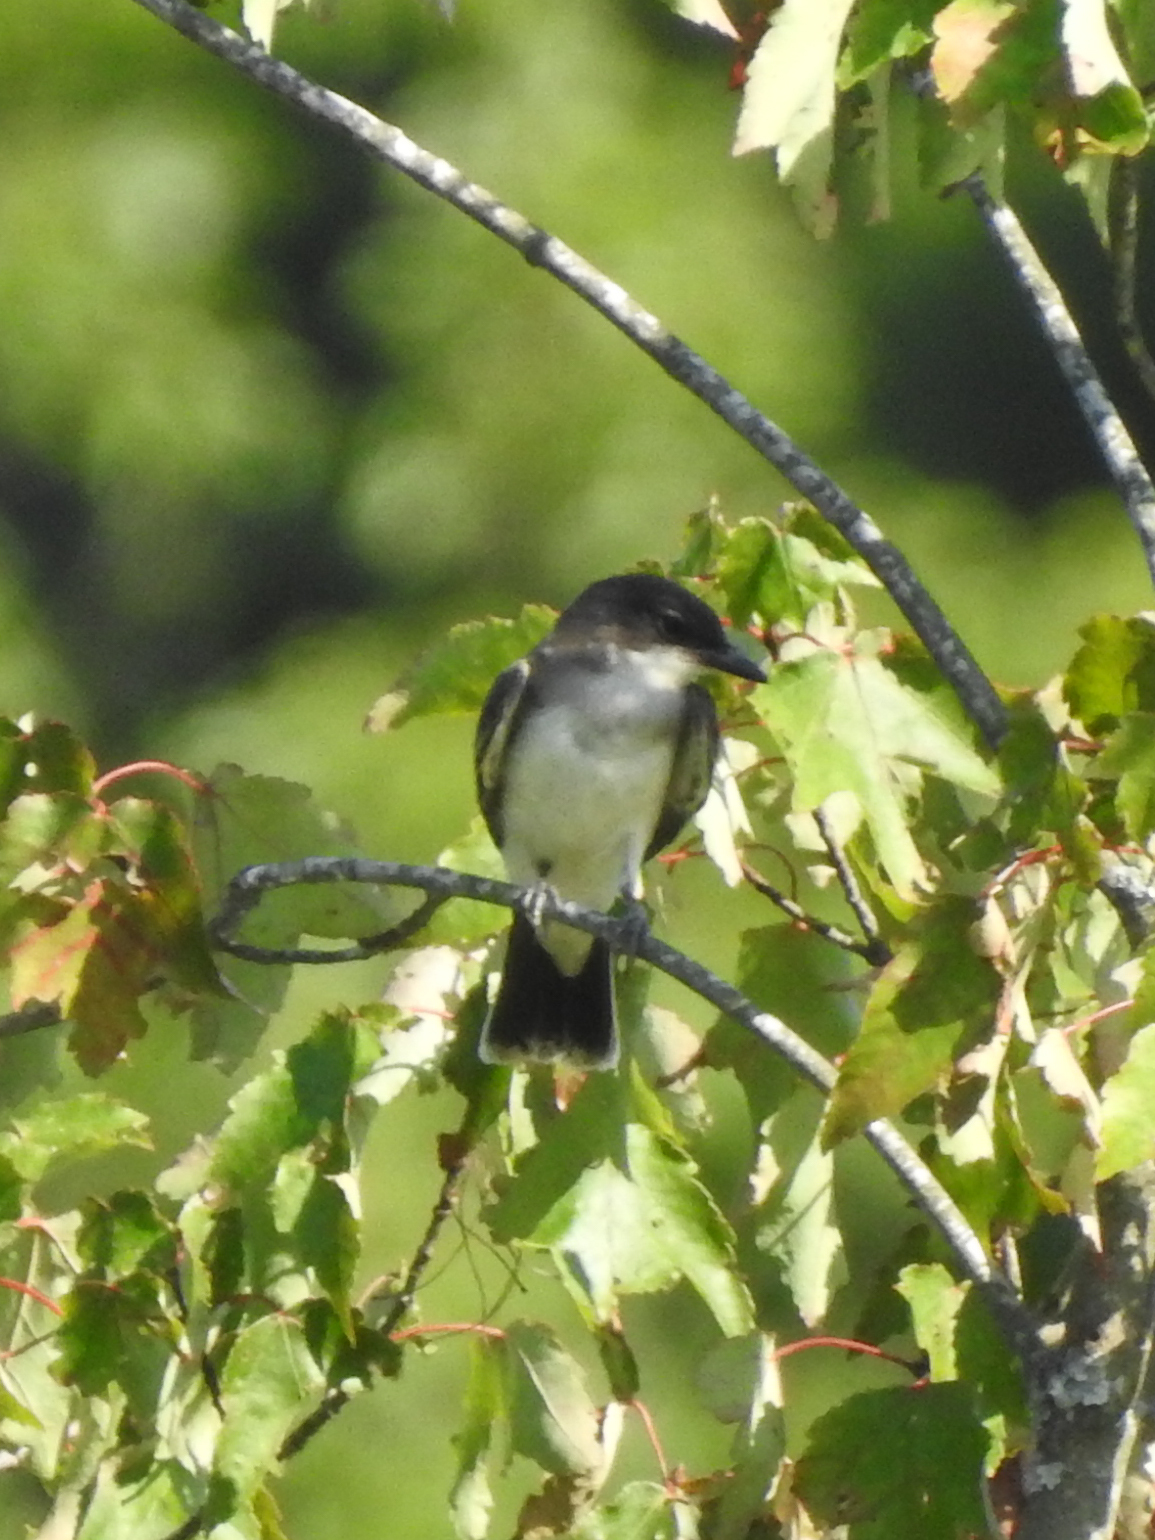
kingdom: Animalia
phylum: Chordata
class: Aves
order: Passeriformes
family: Tyrannidae
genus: Tyrannus
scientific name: Tyrannus tyrannus
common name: Eastern kingbird
